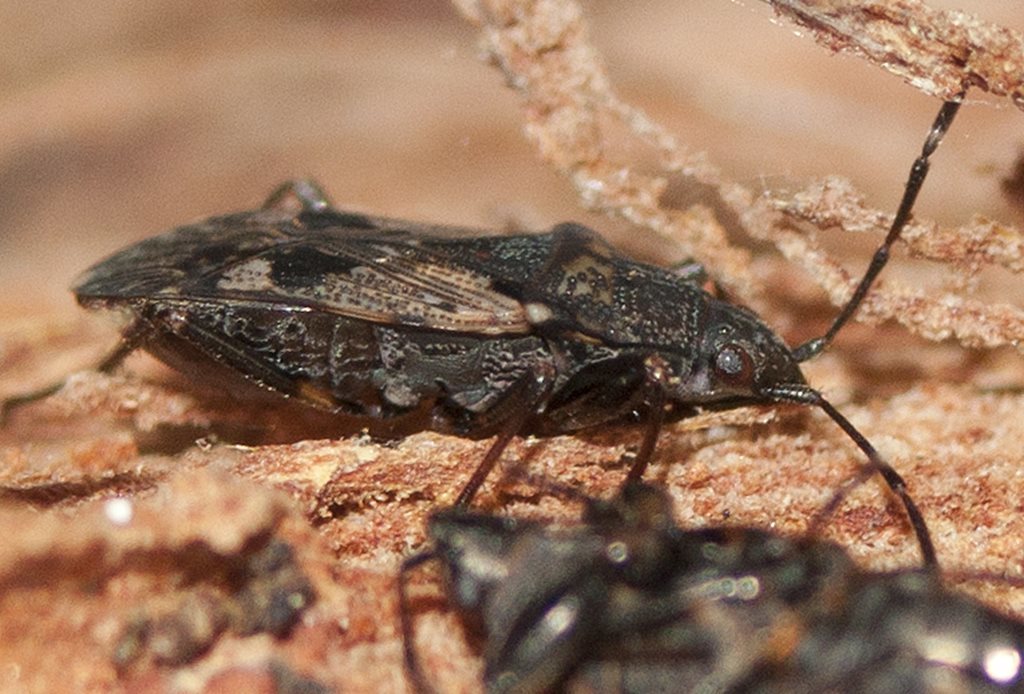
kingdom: Animalia
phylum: Arthropoda
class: Insecta
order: Hemiptera
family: Rhyparochromidae
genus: Euander
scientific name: Euander lacertosus
